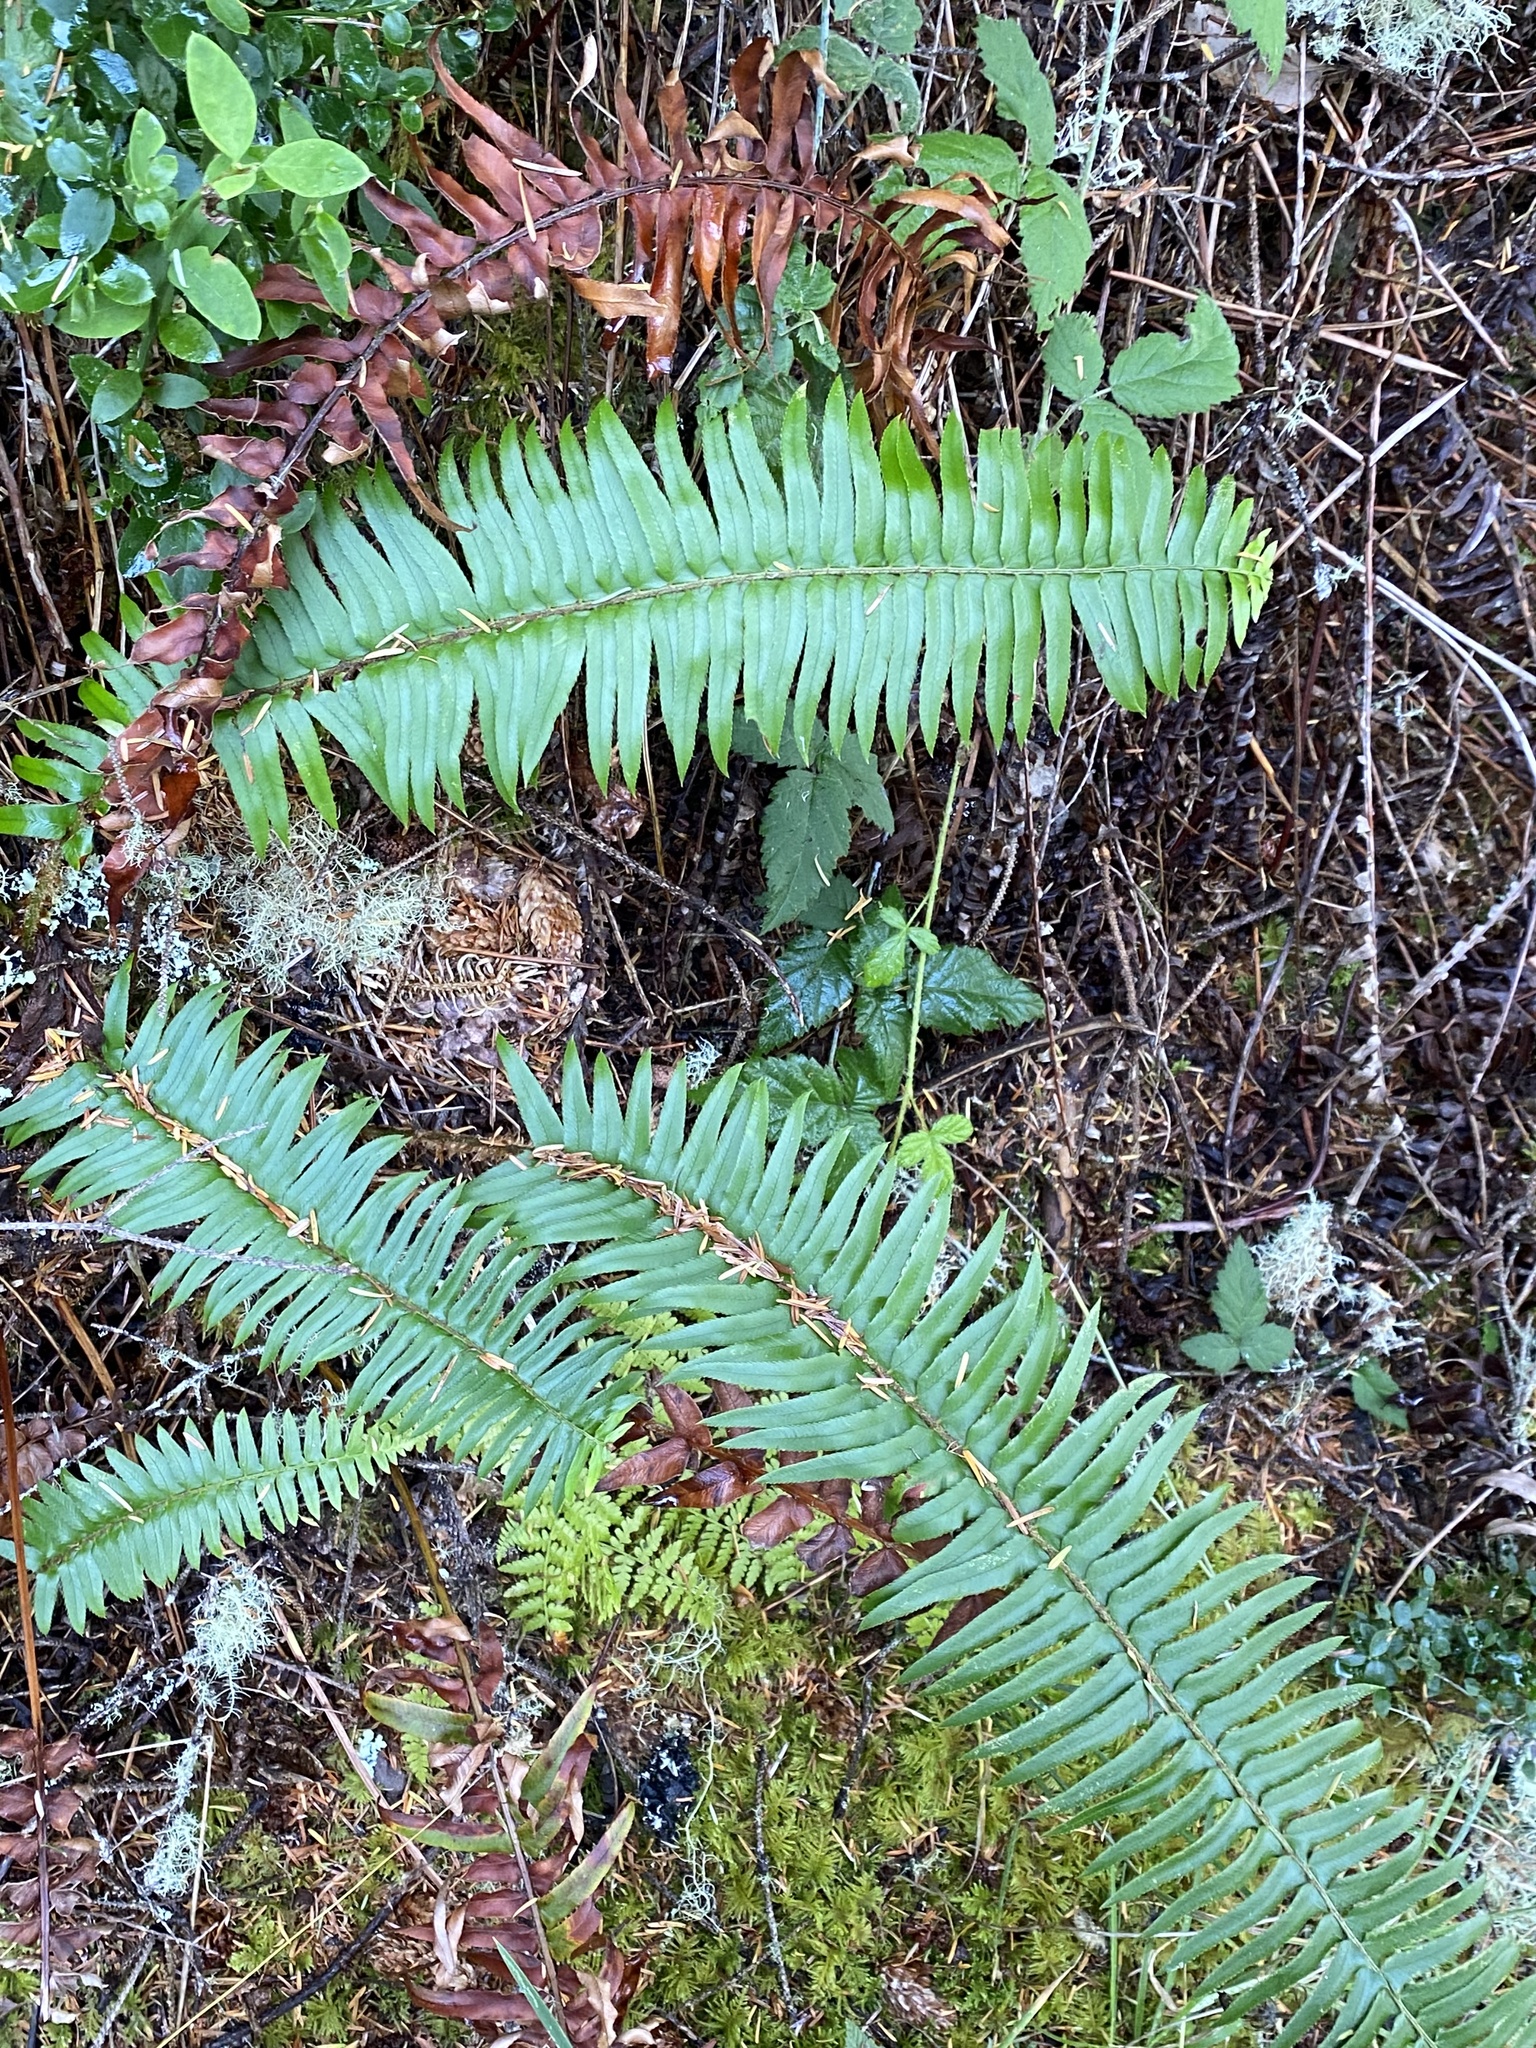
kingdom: Plantae
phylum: Tracheophyta
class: Polypodiopsida
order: Polypodiales
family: Dryopteridaceae
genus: Polystichum
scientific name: Polystichum munitum
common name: Western sword-fern
